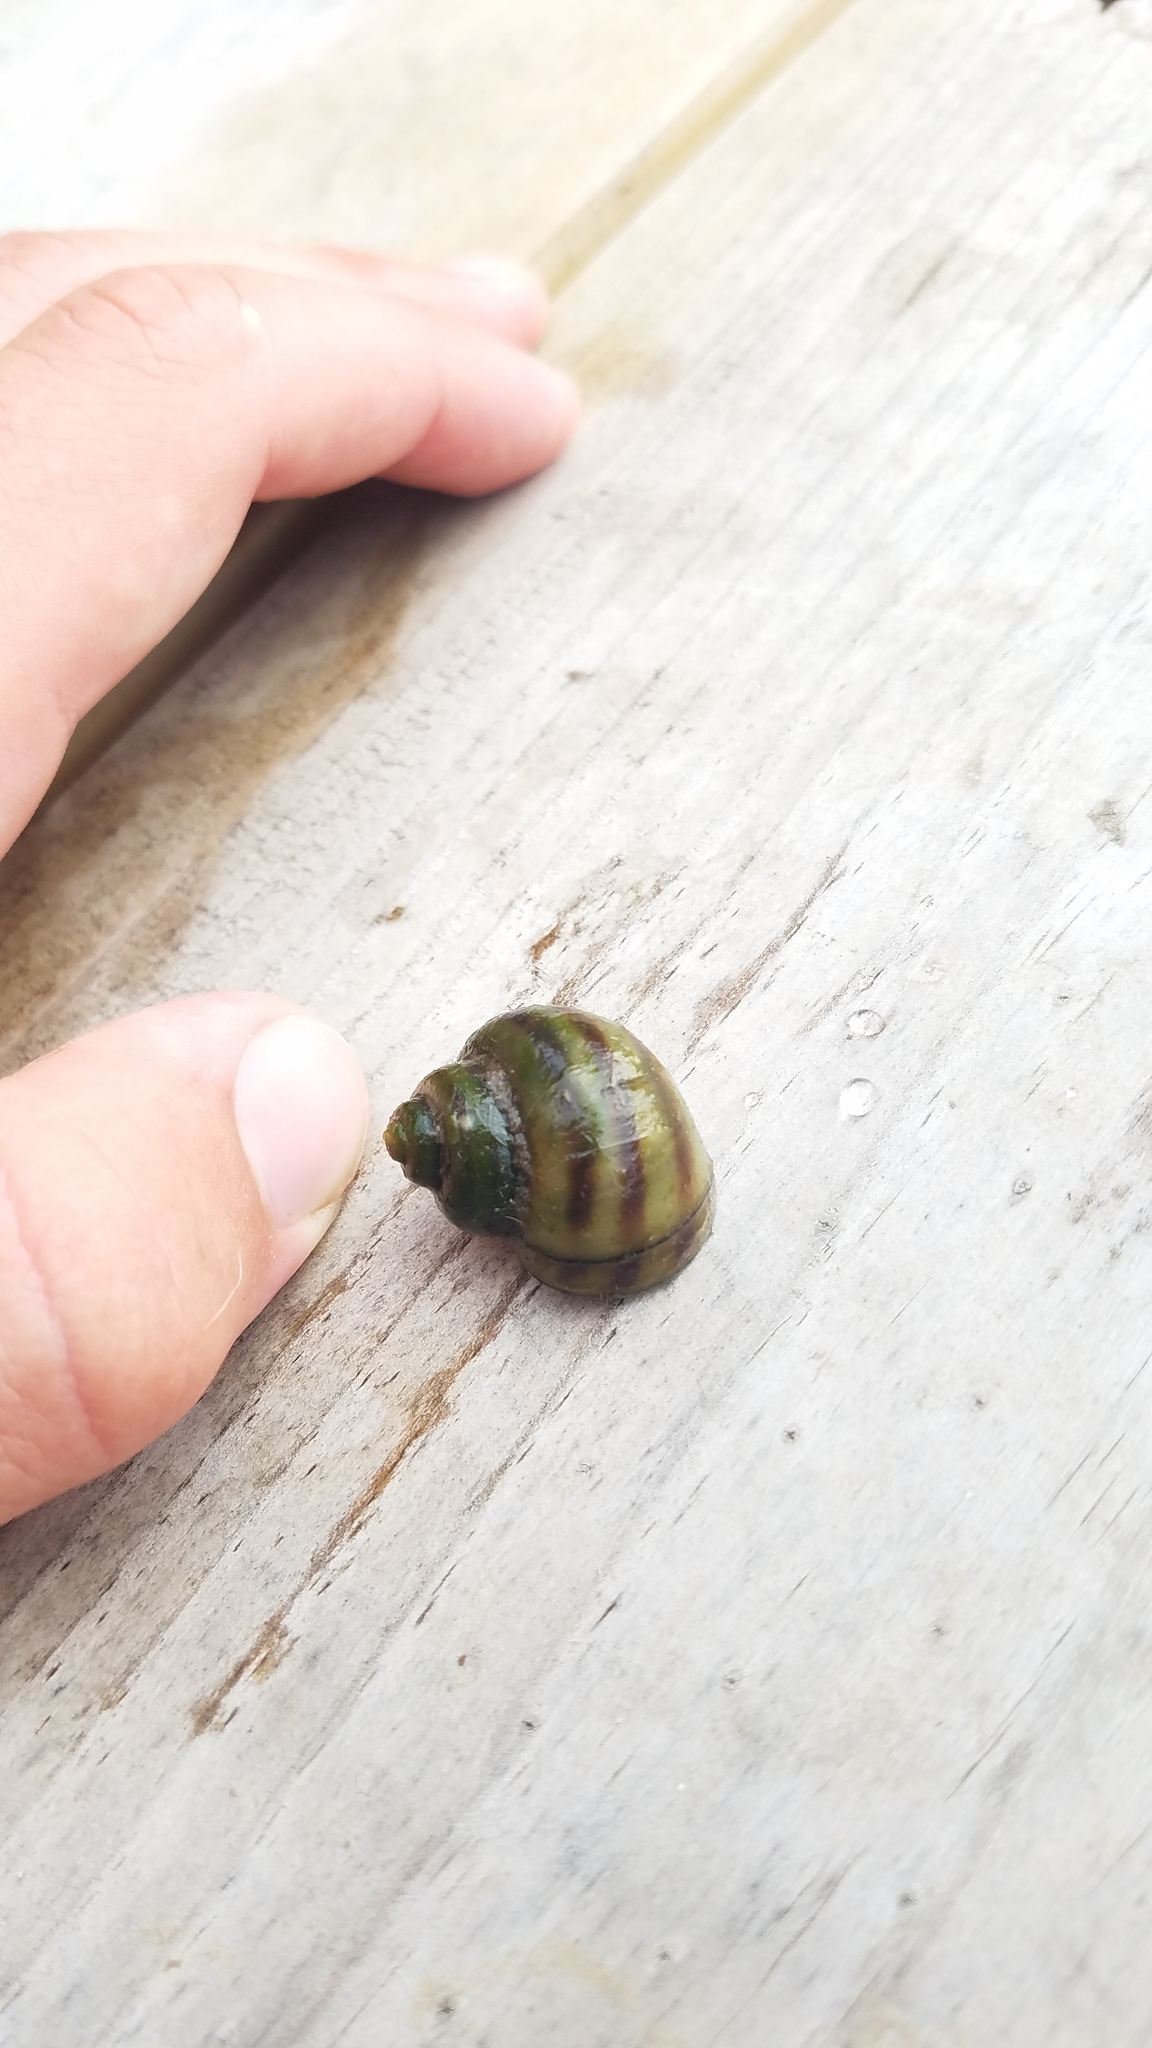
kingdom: Animalia
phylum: Mollusca
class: Gastropoda
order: Architaenioglossa
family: Viviparidae
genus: Callinina
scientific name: Callinina georgiana
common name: Banded mystery snail
